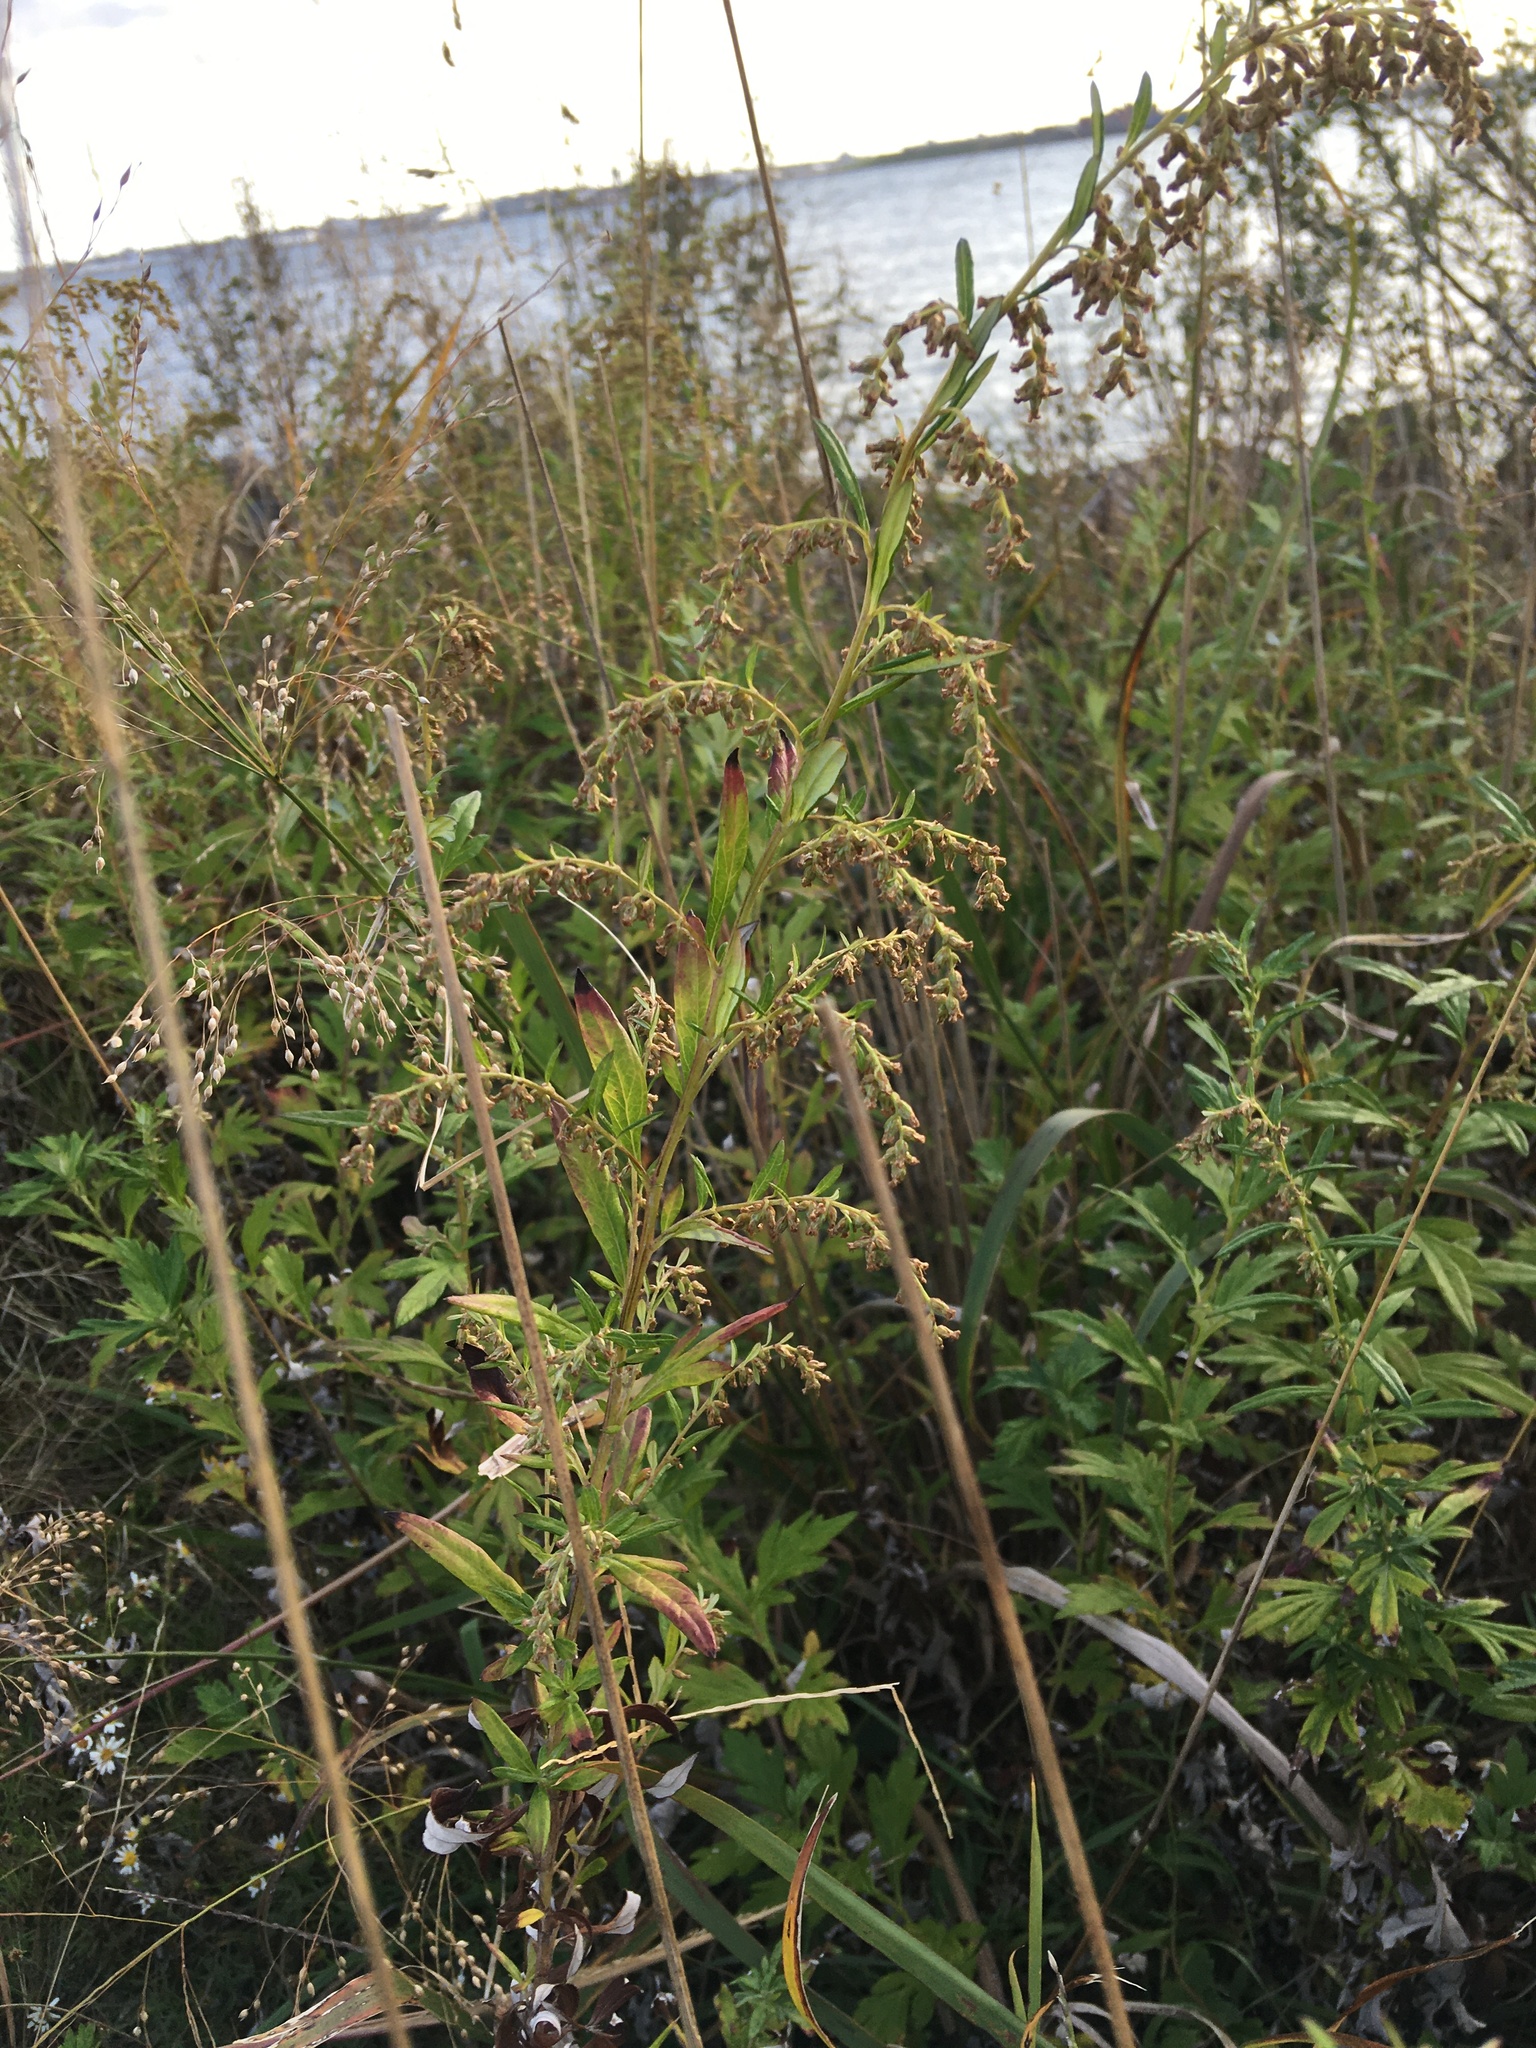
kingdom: Plantae
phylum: Tracheophyta
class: Magnoliopsida
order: Asterales
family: Asteraceae
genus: Artemisia
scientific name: Artemisia vulgaris
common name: Mugwort
